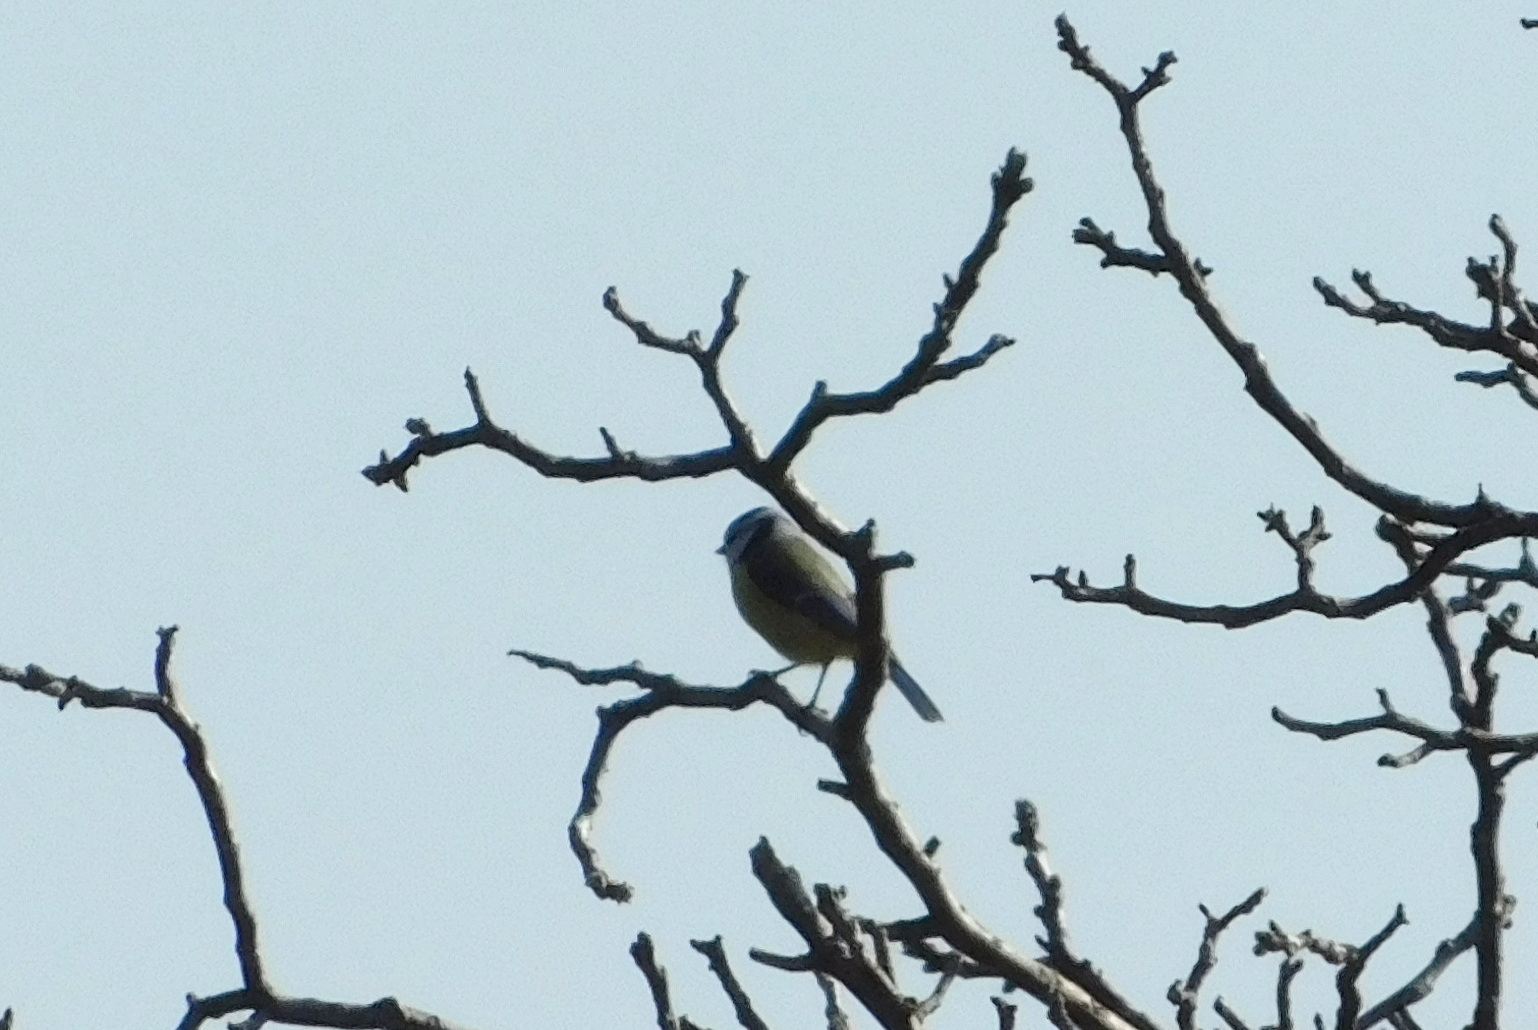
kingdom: Animalia
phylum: Chordata
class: Aves
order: Passeriformes
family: Paridae
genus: Cyanistes
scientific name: Cyanistes caeruleus
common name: Eurasian blue tit
